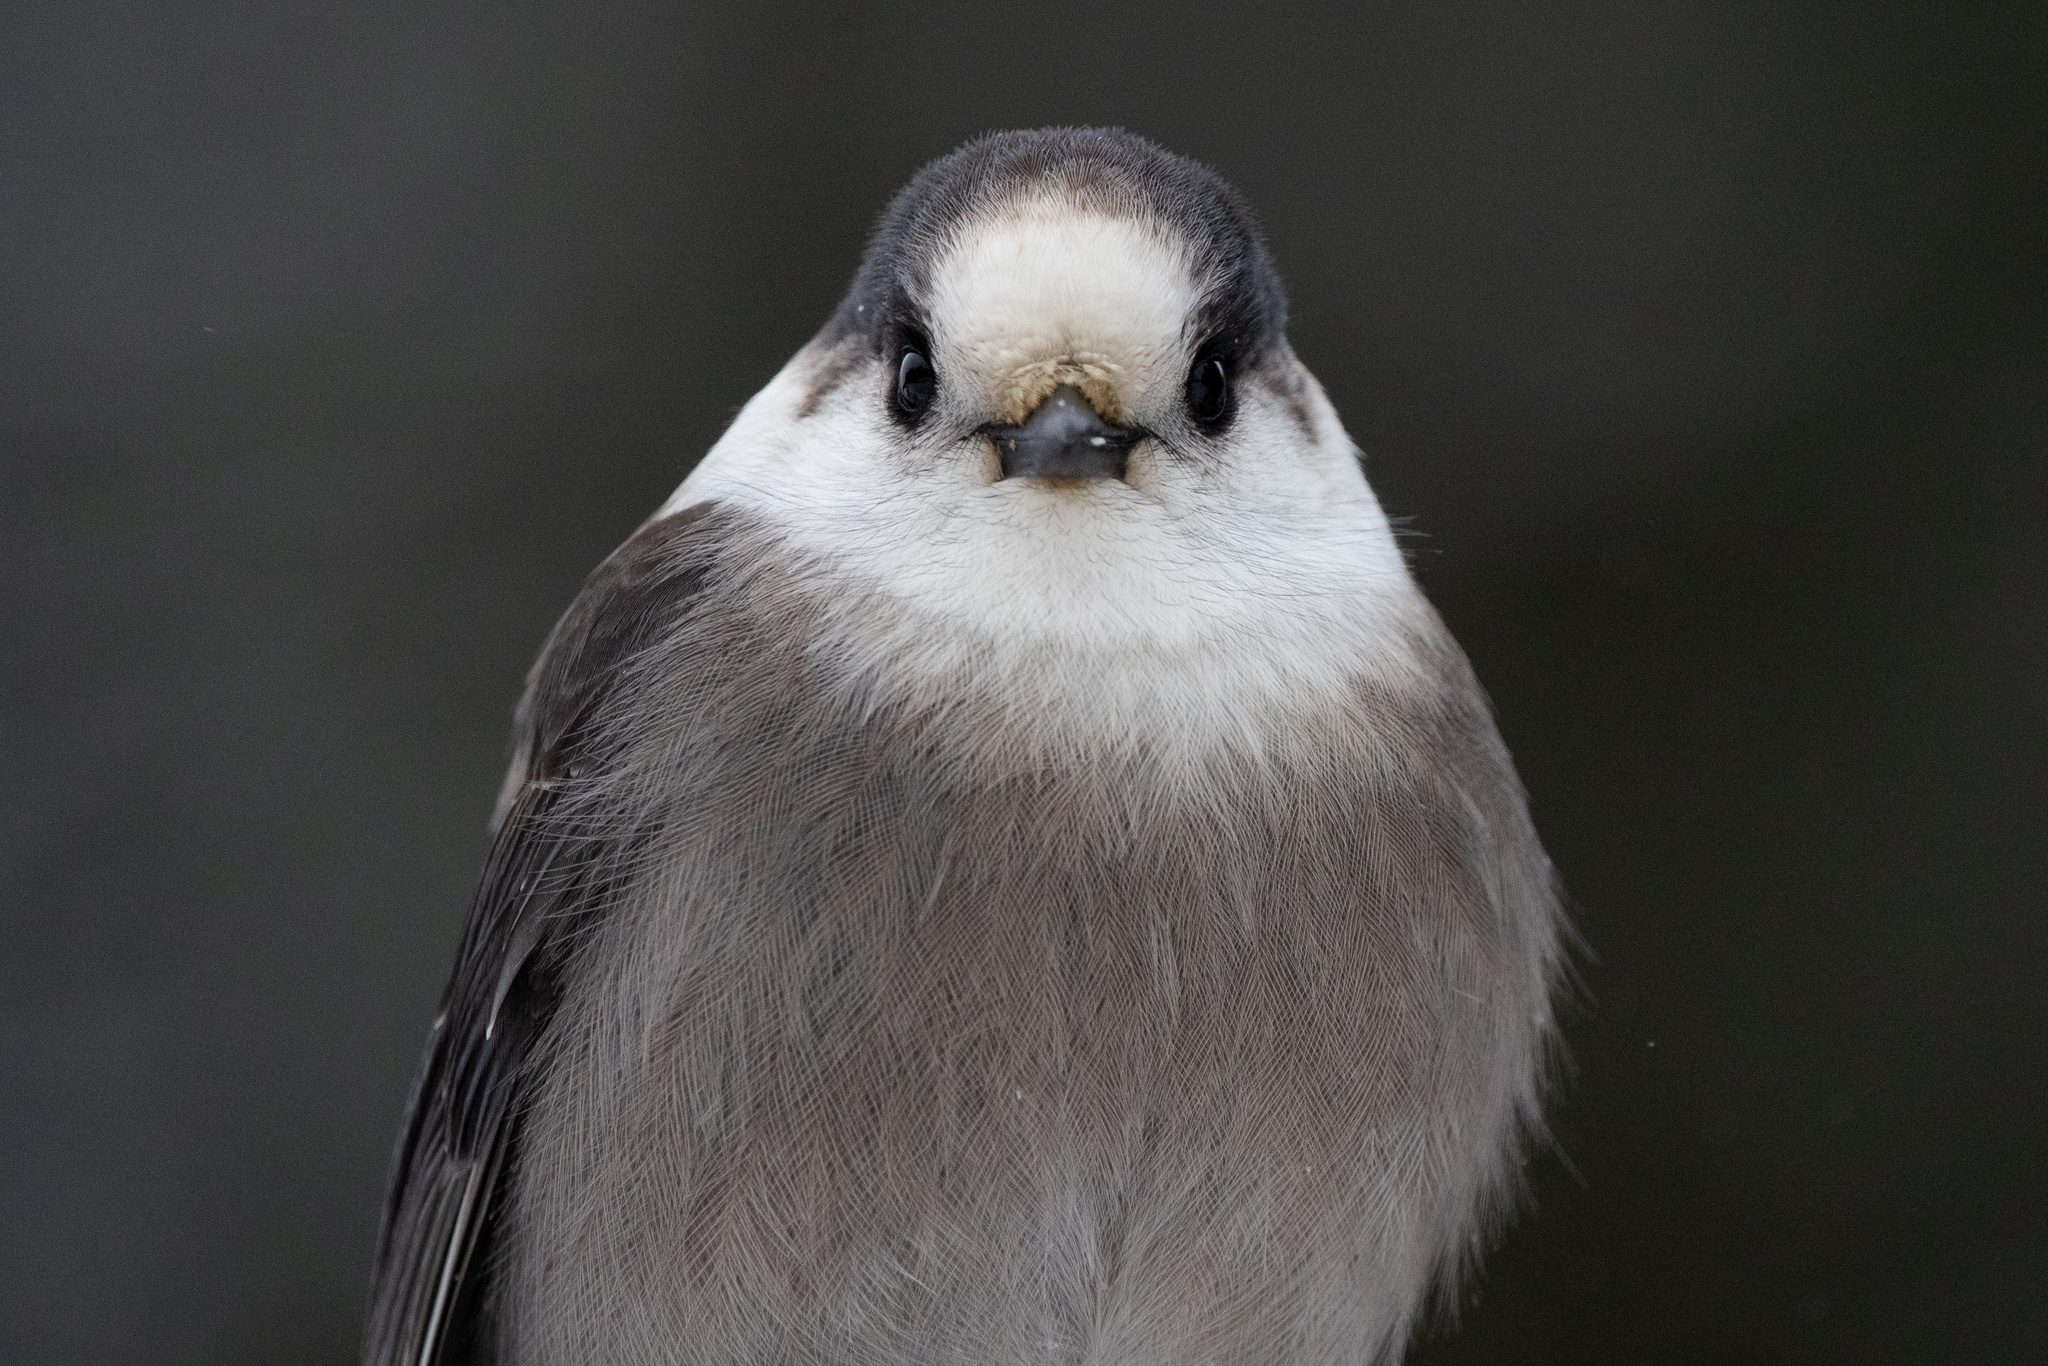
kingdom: Animalia
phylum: Chordata
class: Aves
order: Passeriformes
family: Corvidae
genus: Perisoreus
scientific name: Perisoreus canadensis
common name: Gray jay
